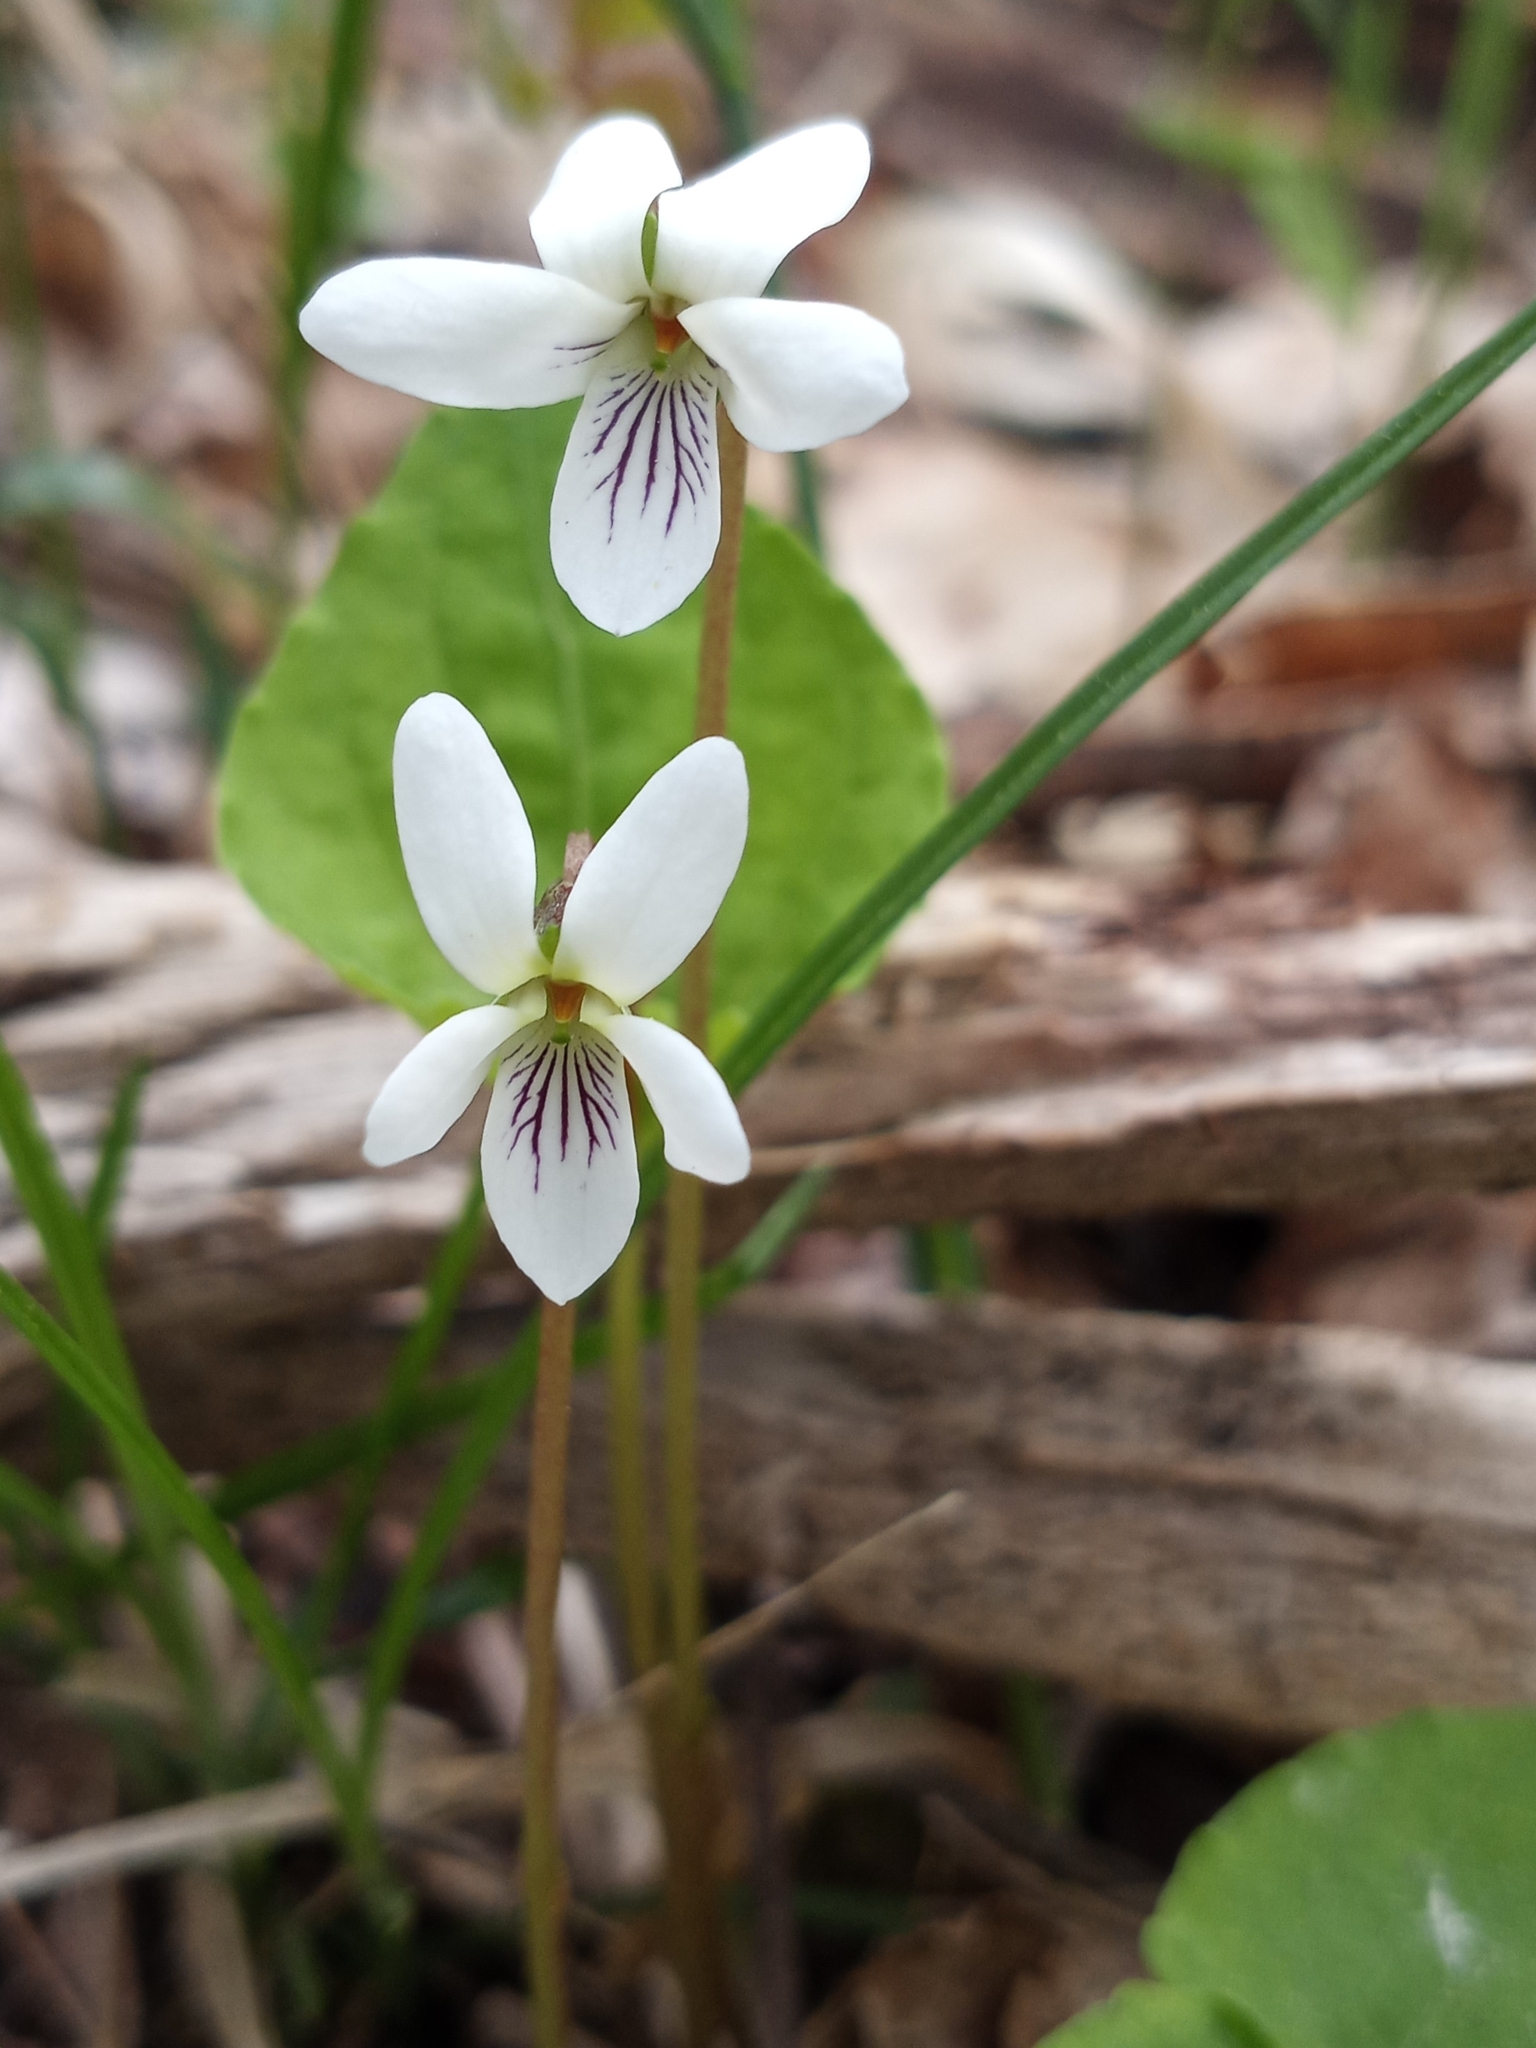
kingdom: Plantae
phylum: Tracheophyta
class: Magnoliopsida
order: Malpighiales
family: Violaceae
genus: Viola
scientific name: Viola blanda
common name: Sweet white violet
